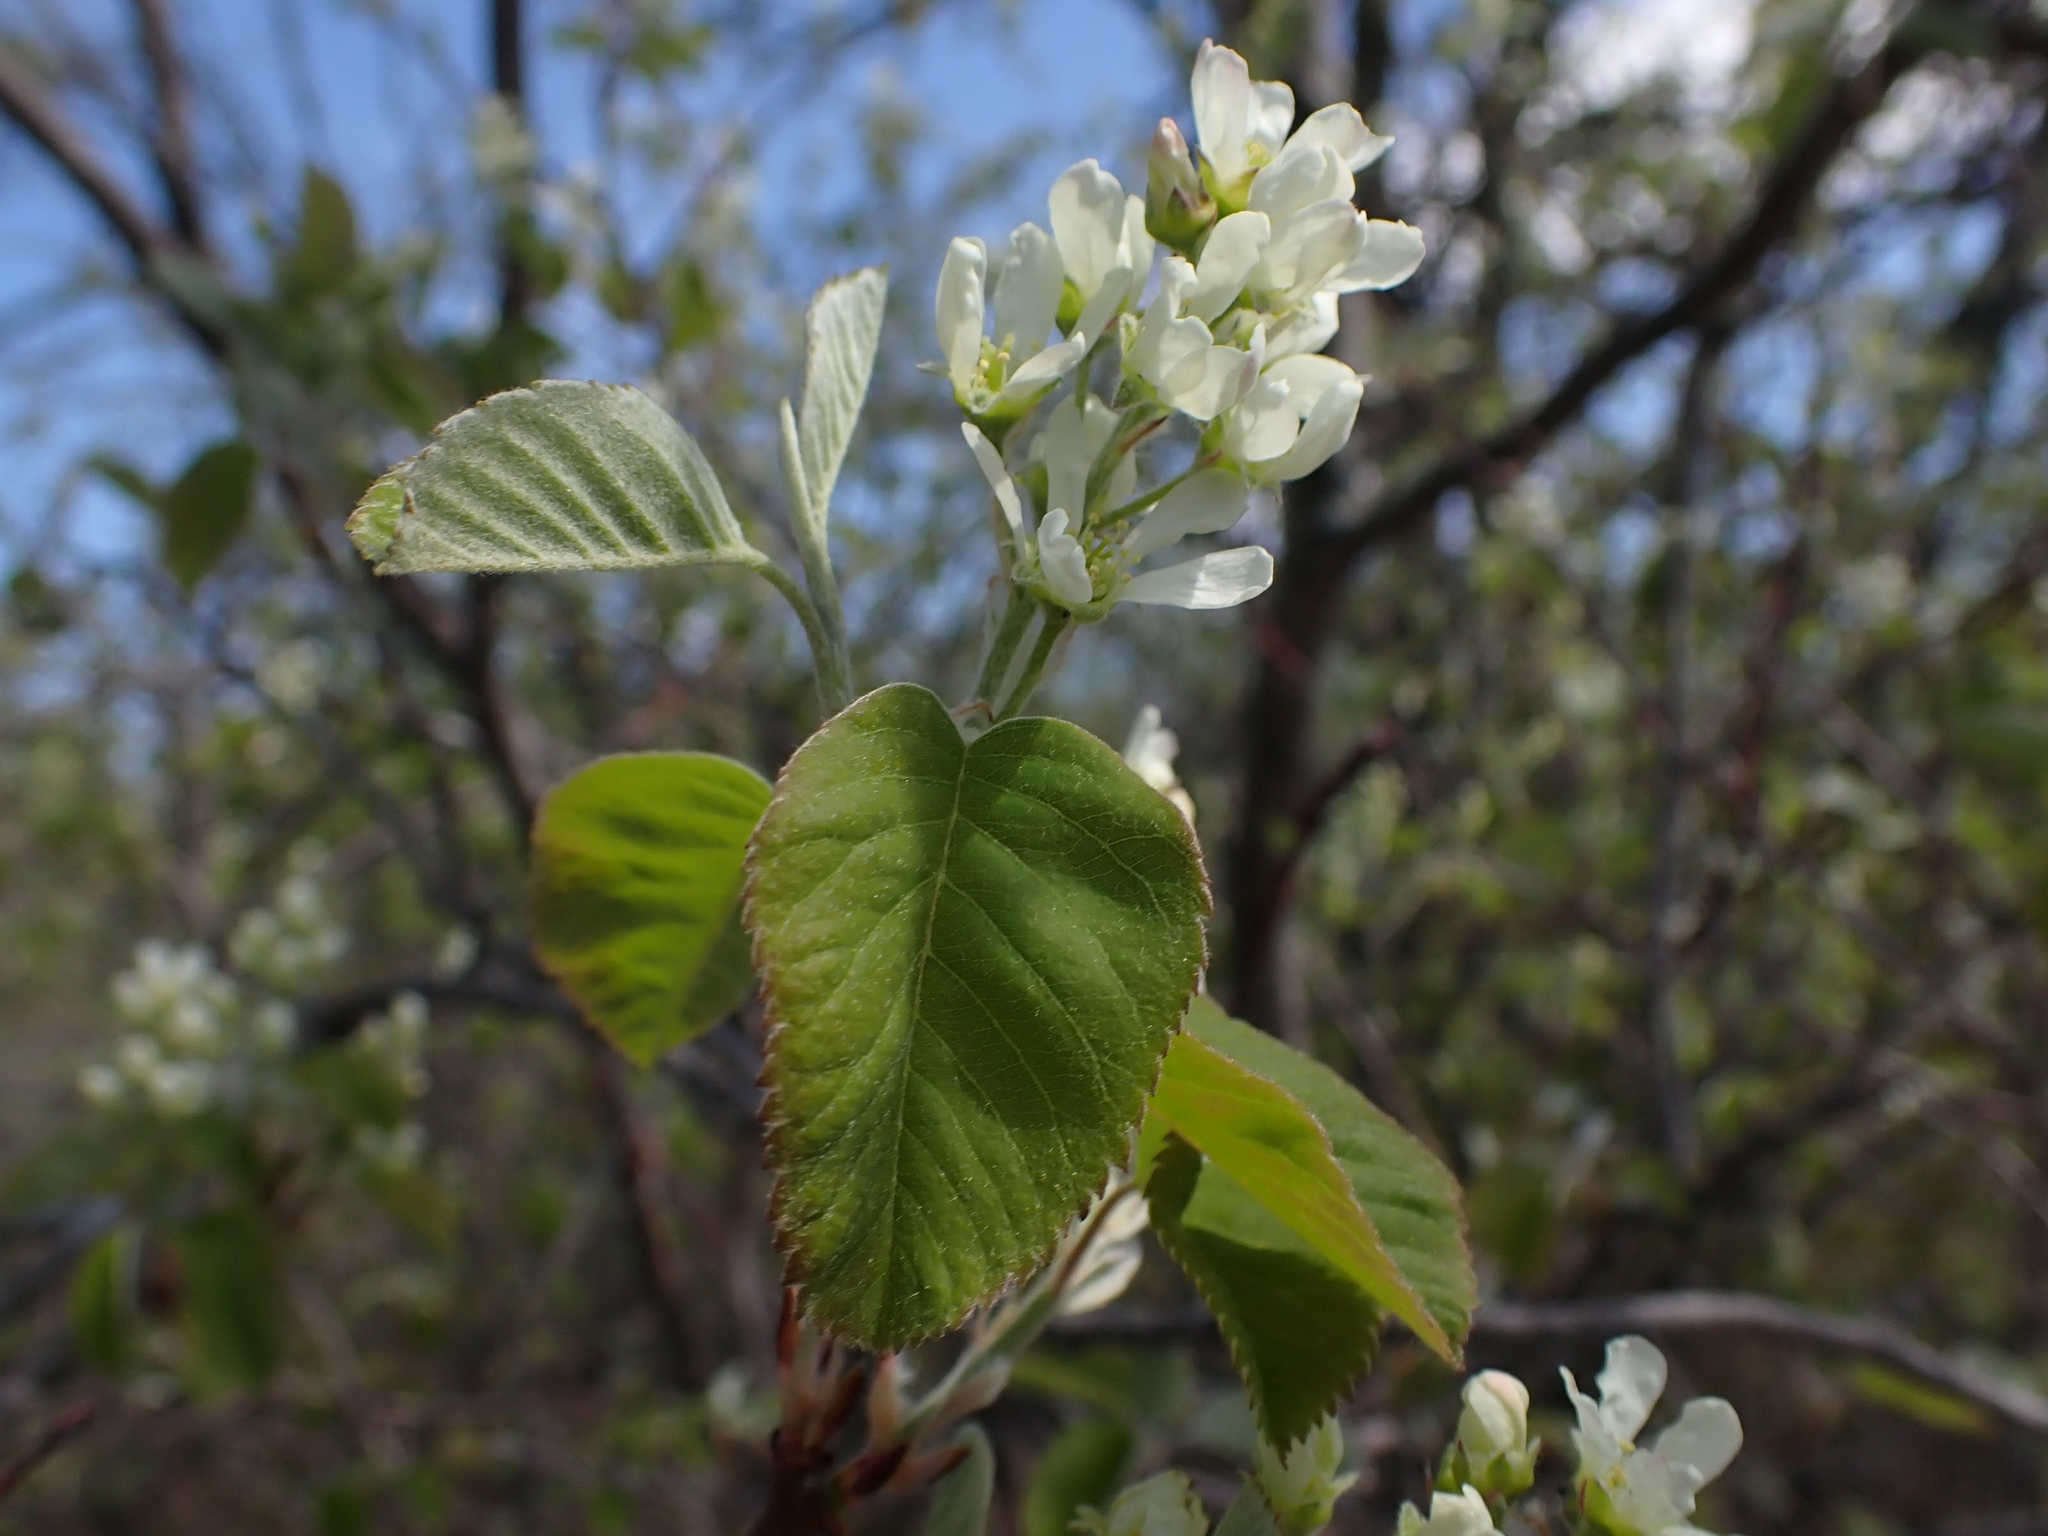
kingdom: Plantae
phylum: Tracheophyta
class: Magnoliopsida
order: Rosales
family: Rosaceae
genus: Amelanchier
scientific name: Amelanchier alnifolia
